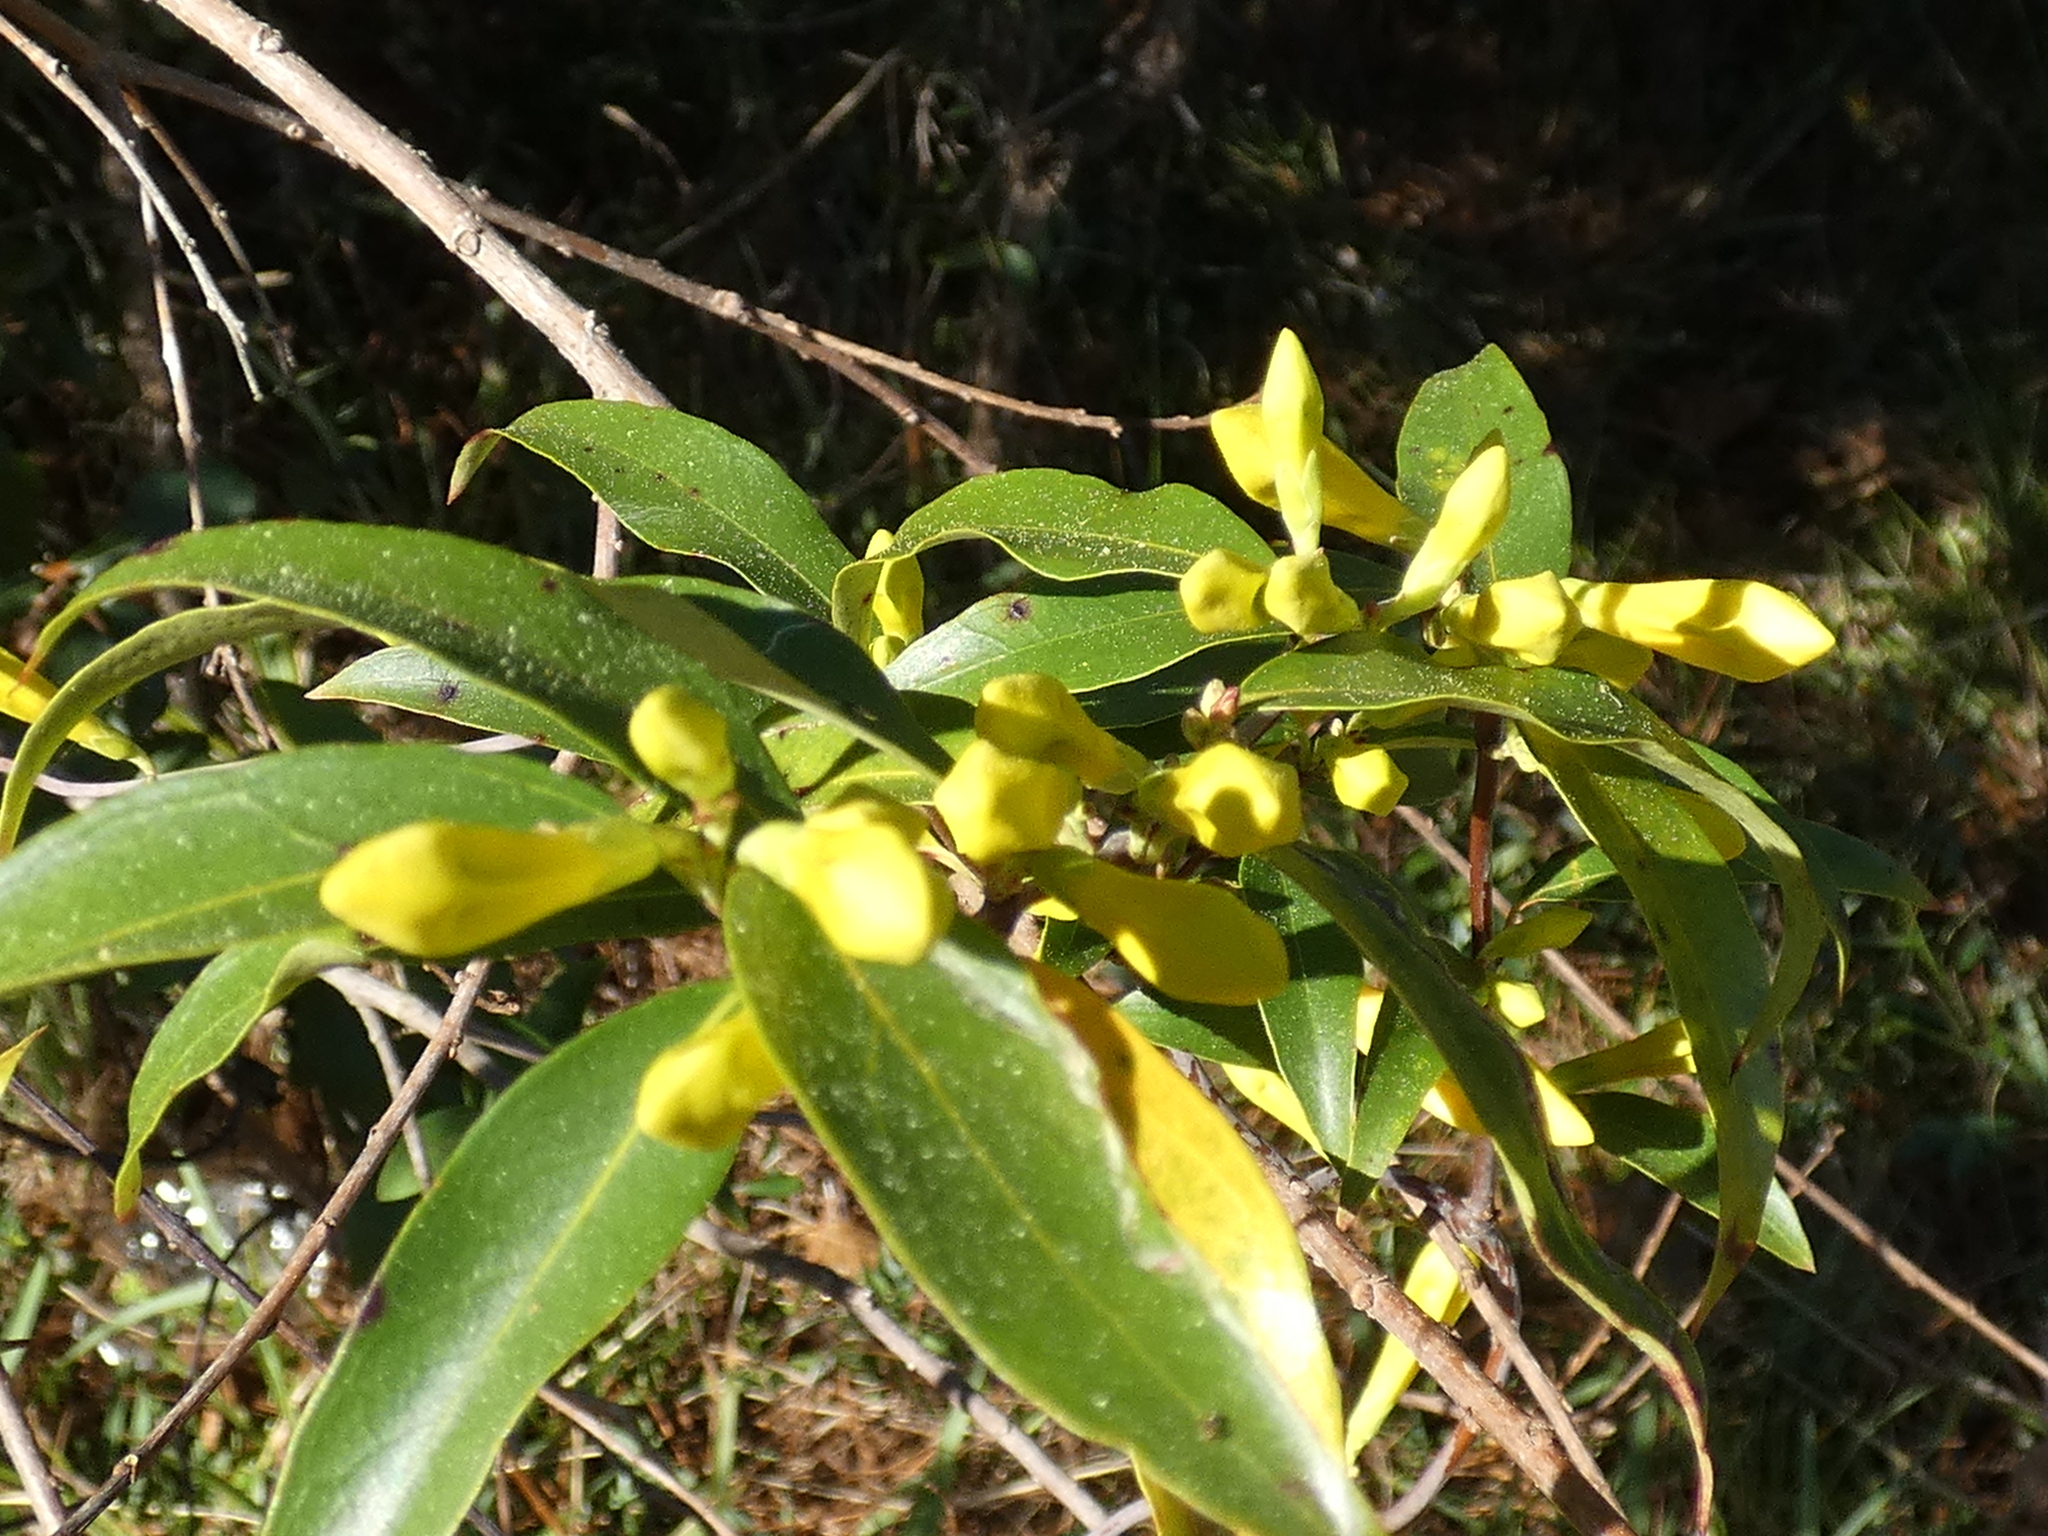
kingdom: Plantae
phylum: Tracheophyta
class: Magnoliopsida
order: Gentianales
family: Gelsemiaceae
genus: Gelsemium
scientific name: Gelsemium sempervirens
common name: Carolina-jasmine
